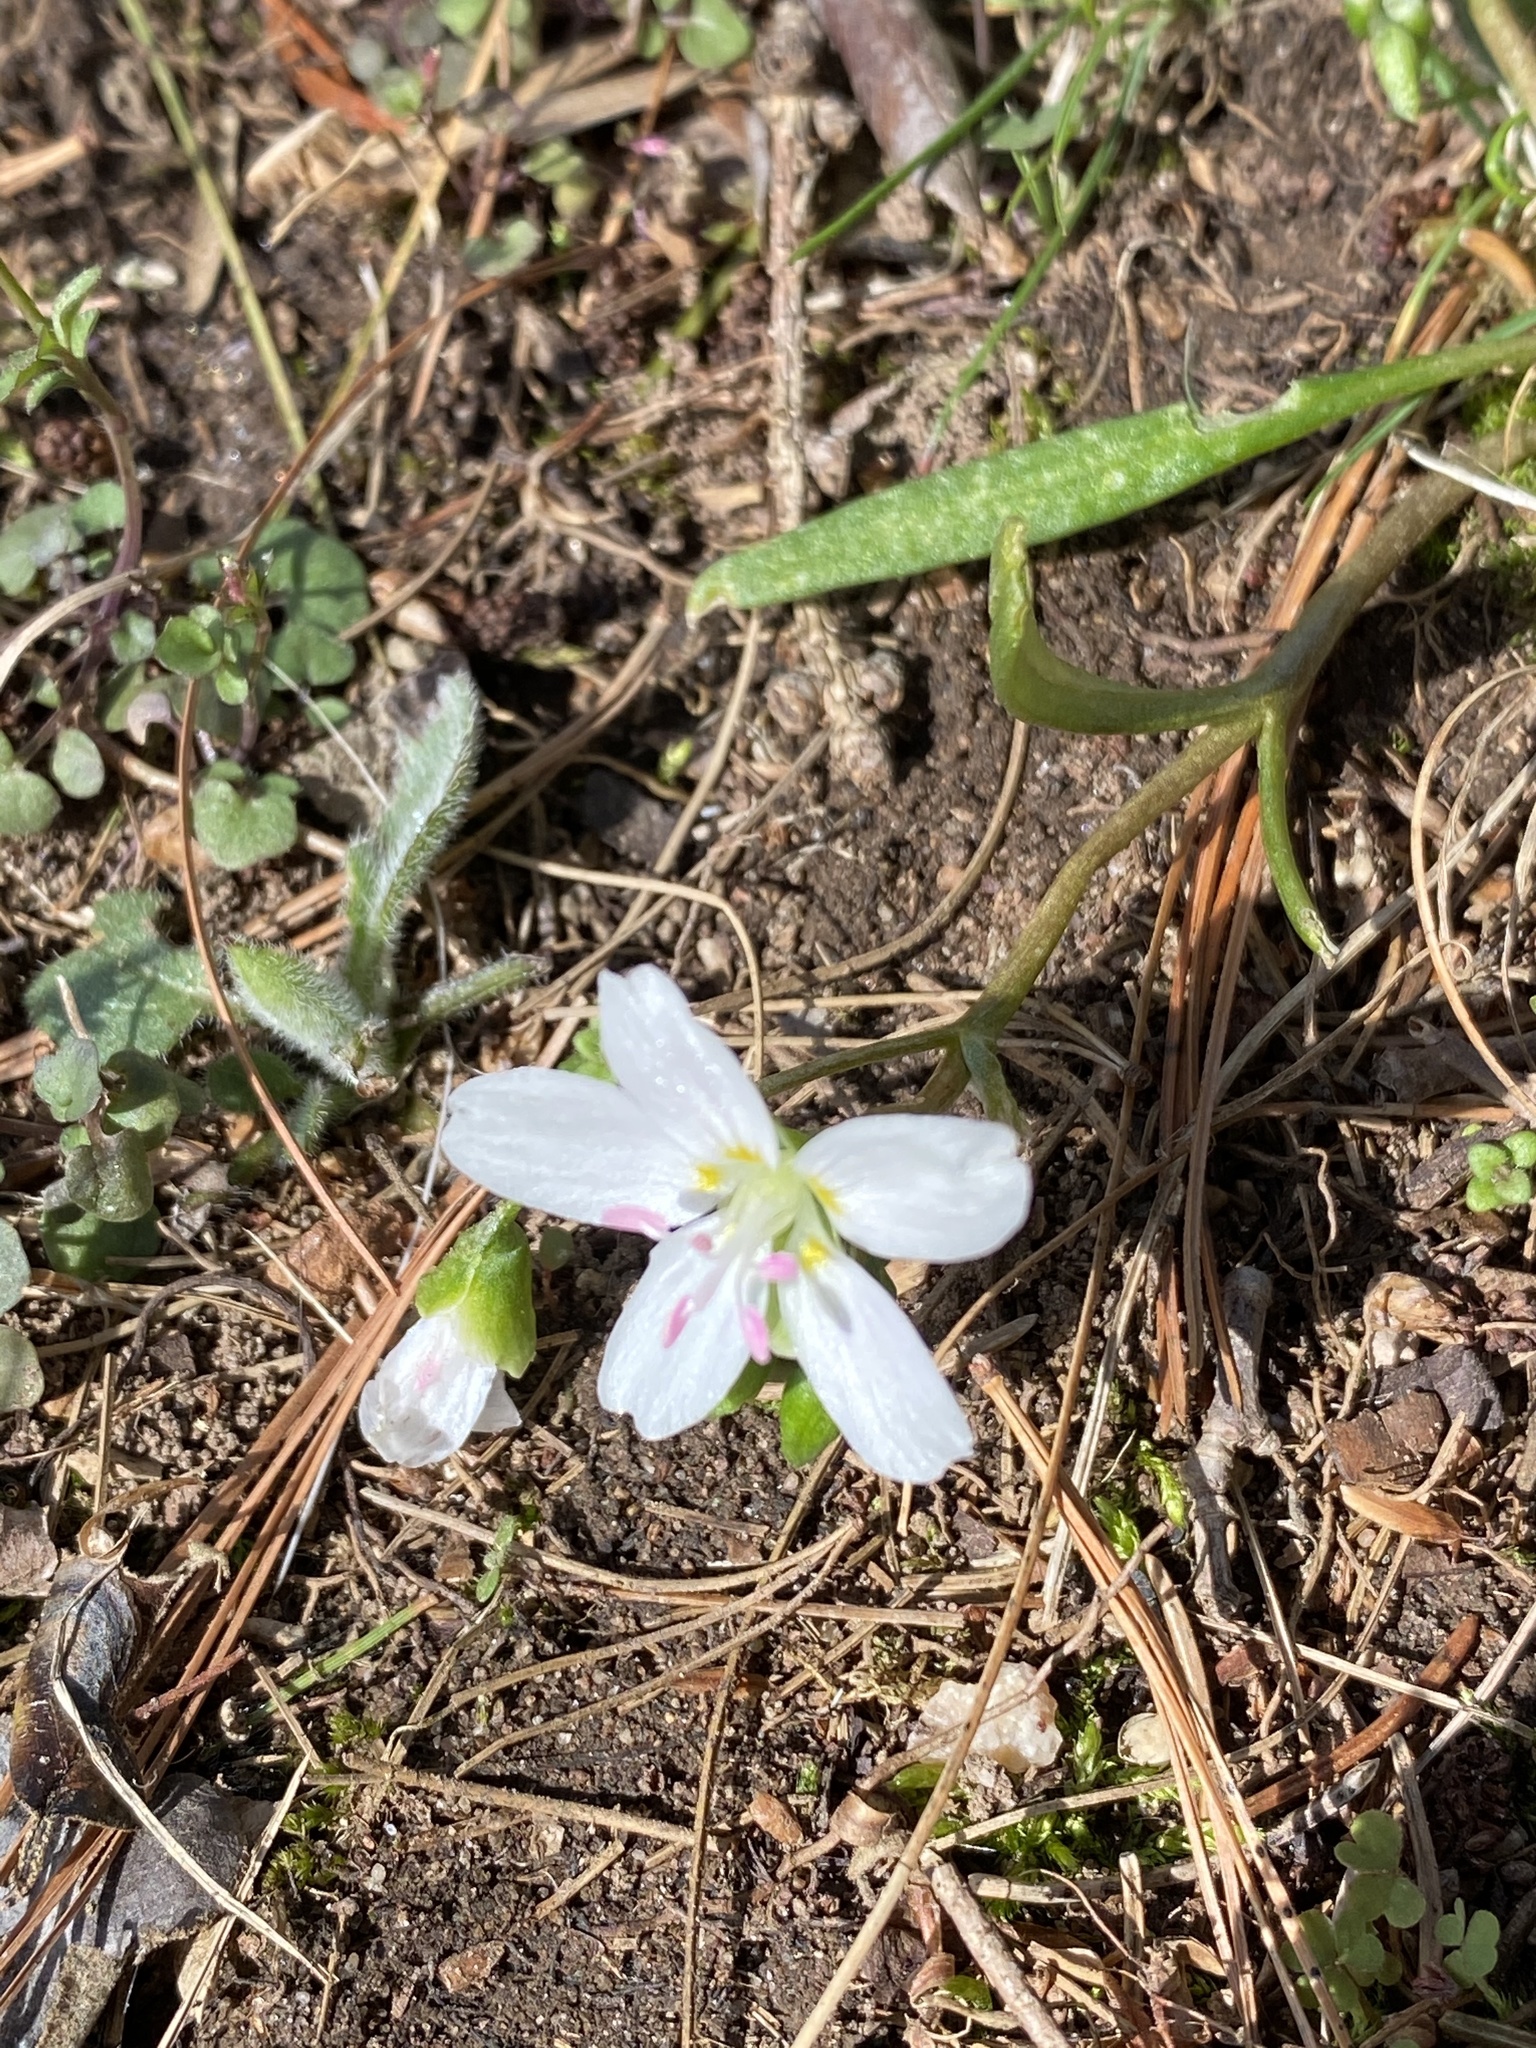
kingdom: Plantae
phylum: Tracheophyta
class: Magnoliopsida
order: Caryophyllales
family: Montiaceae
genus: Claytonia
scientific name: Claytonia virginica
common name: Virginia springbeauty
